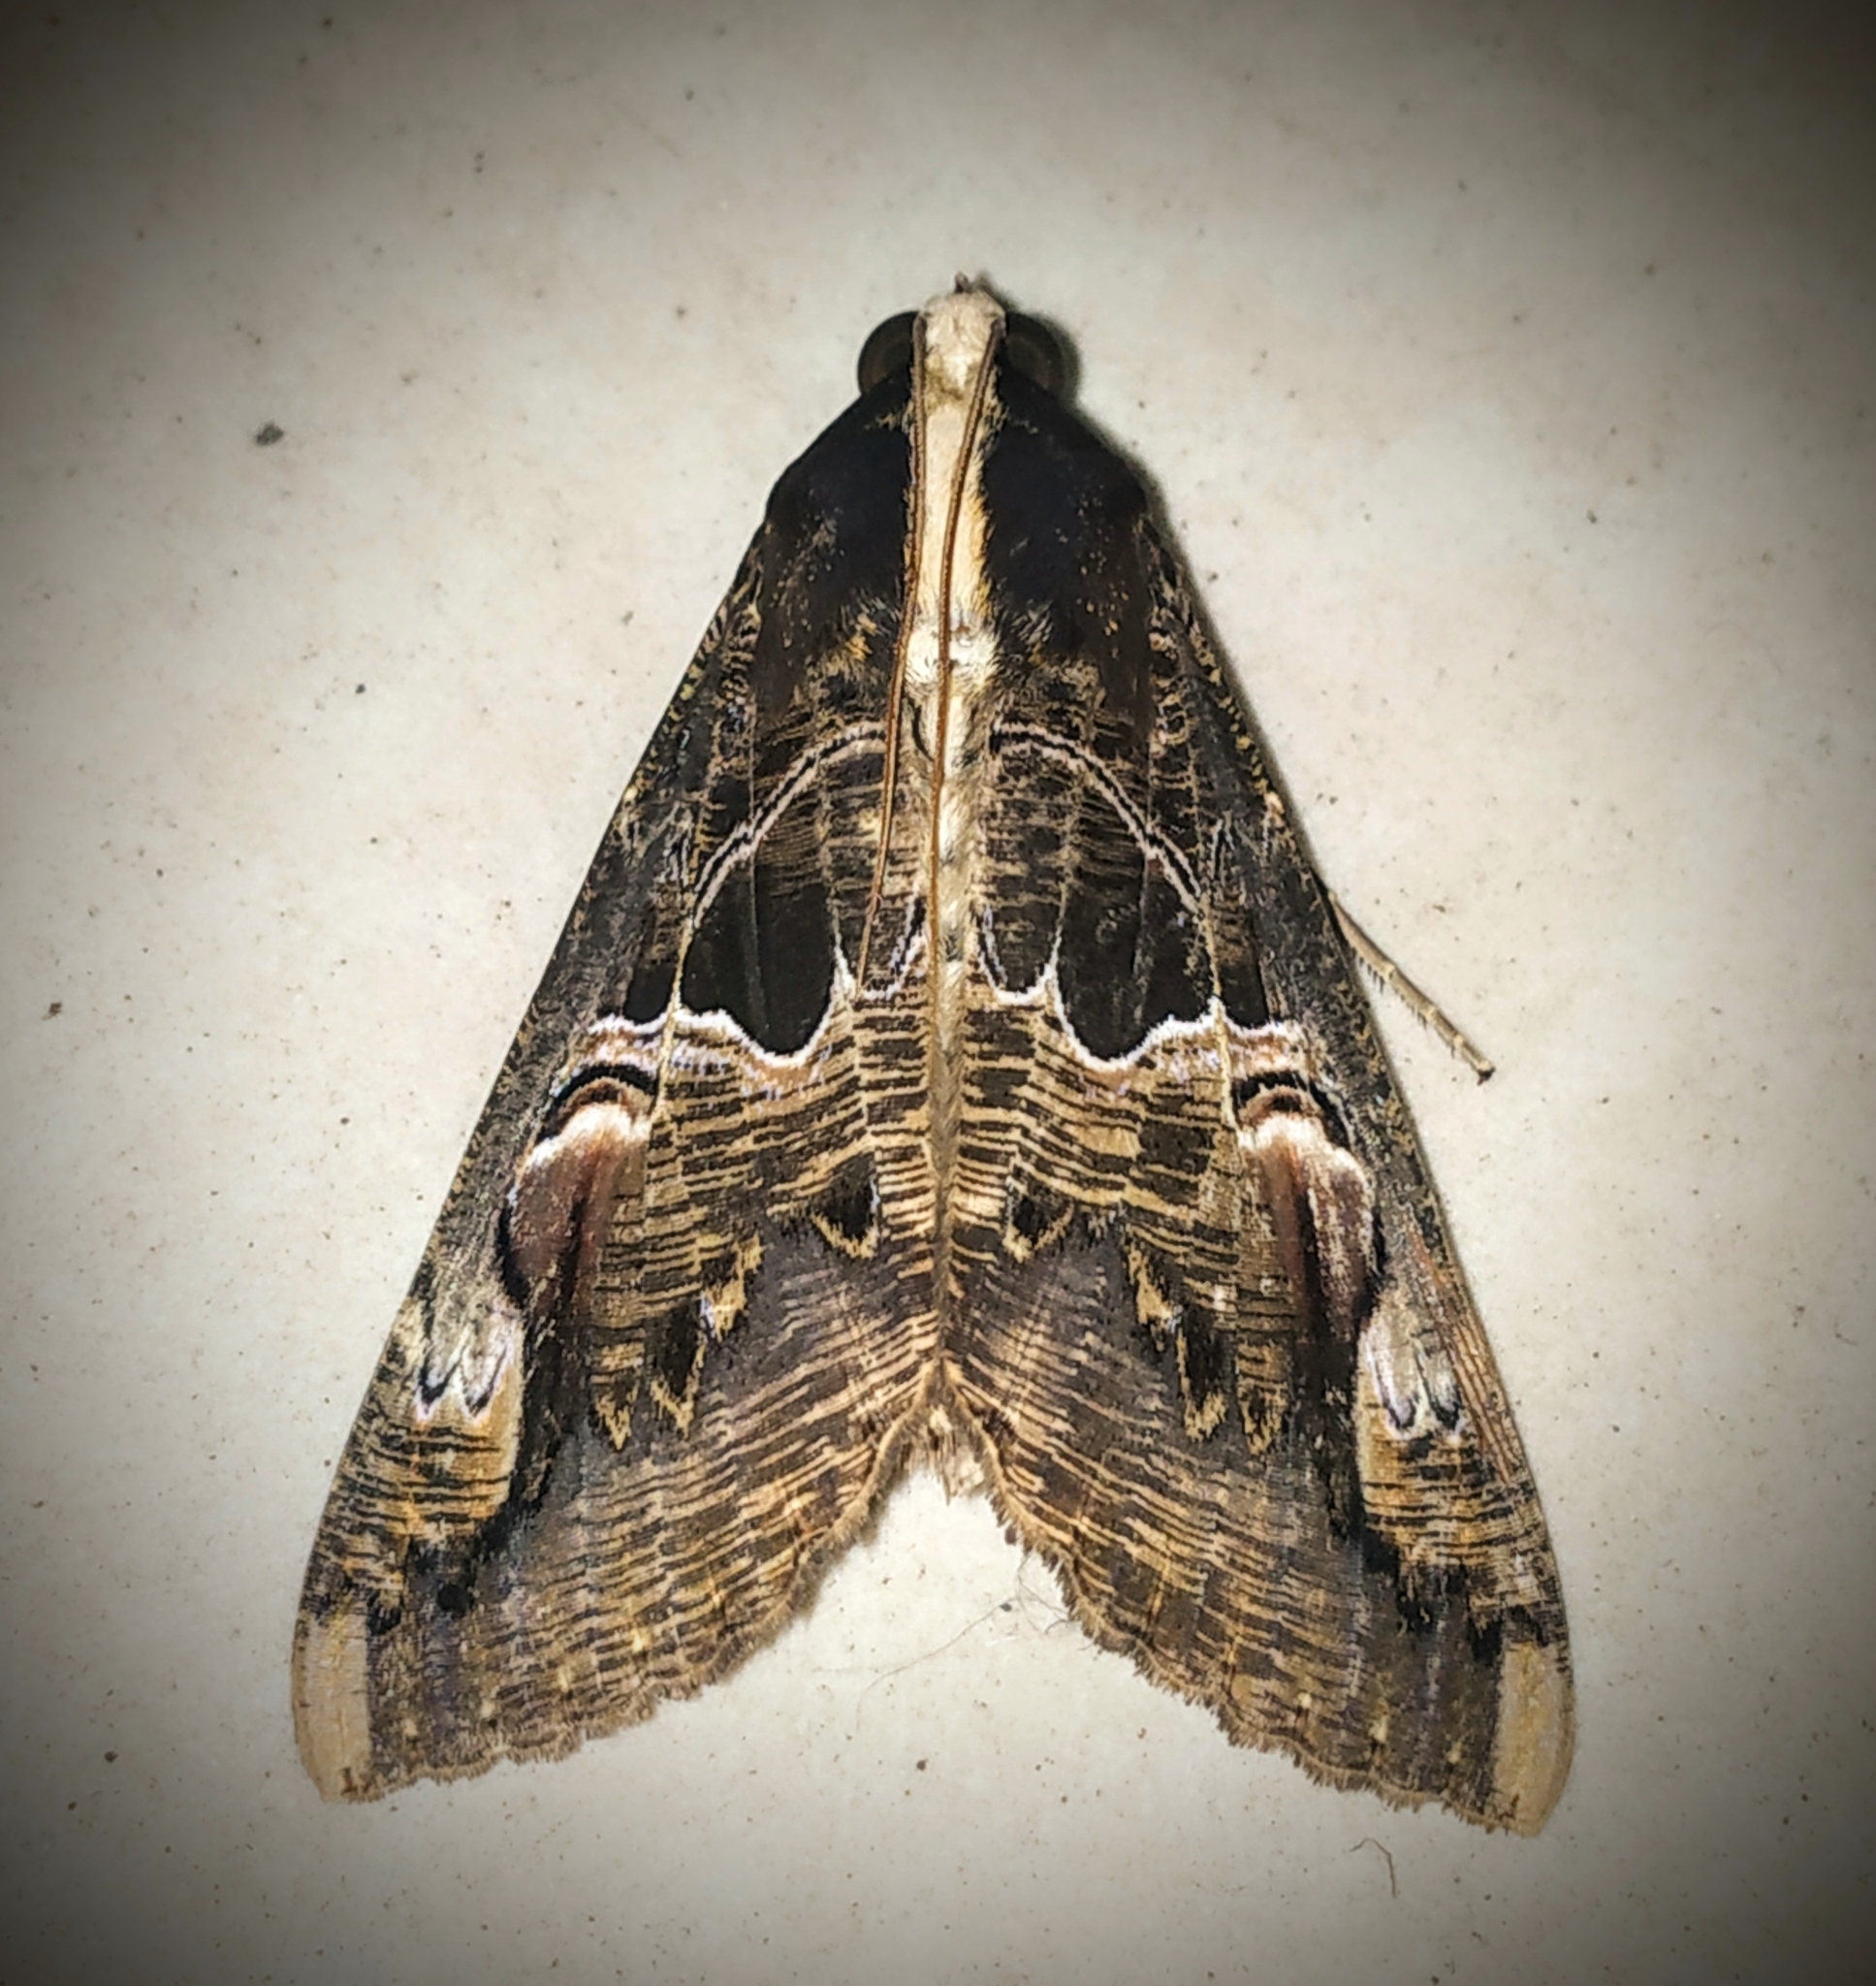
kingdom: Animalia
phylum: Arthropoda
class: Insecta
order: Lepidoptera
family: Erebidae
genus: Sphingomorpha
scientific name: Sphingomorpha chlorea
